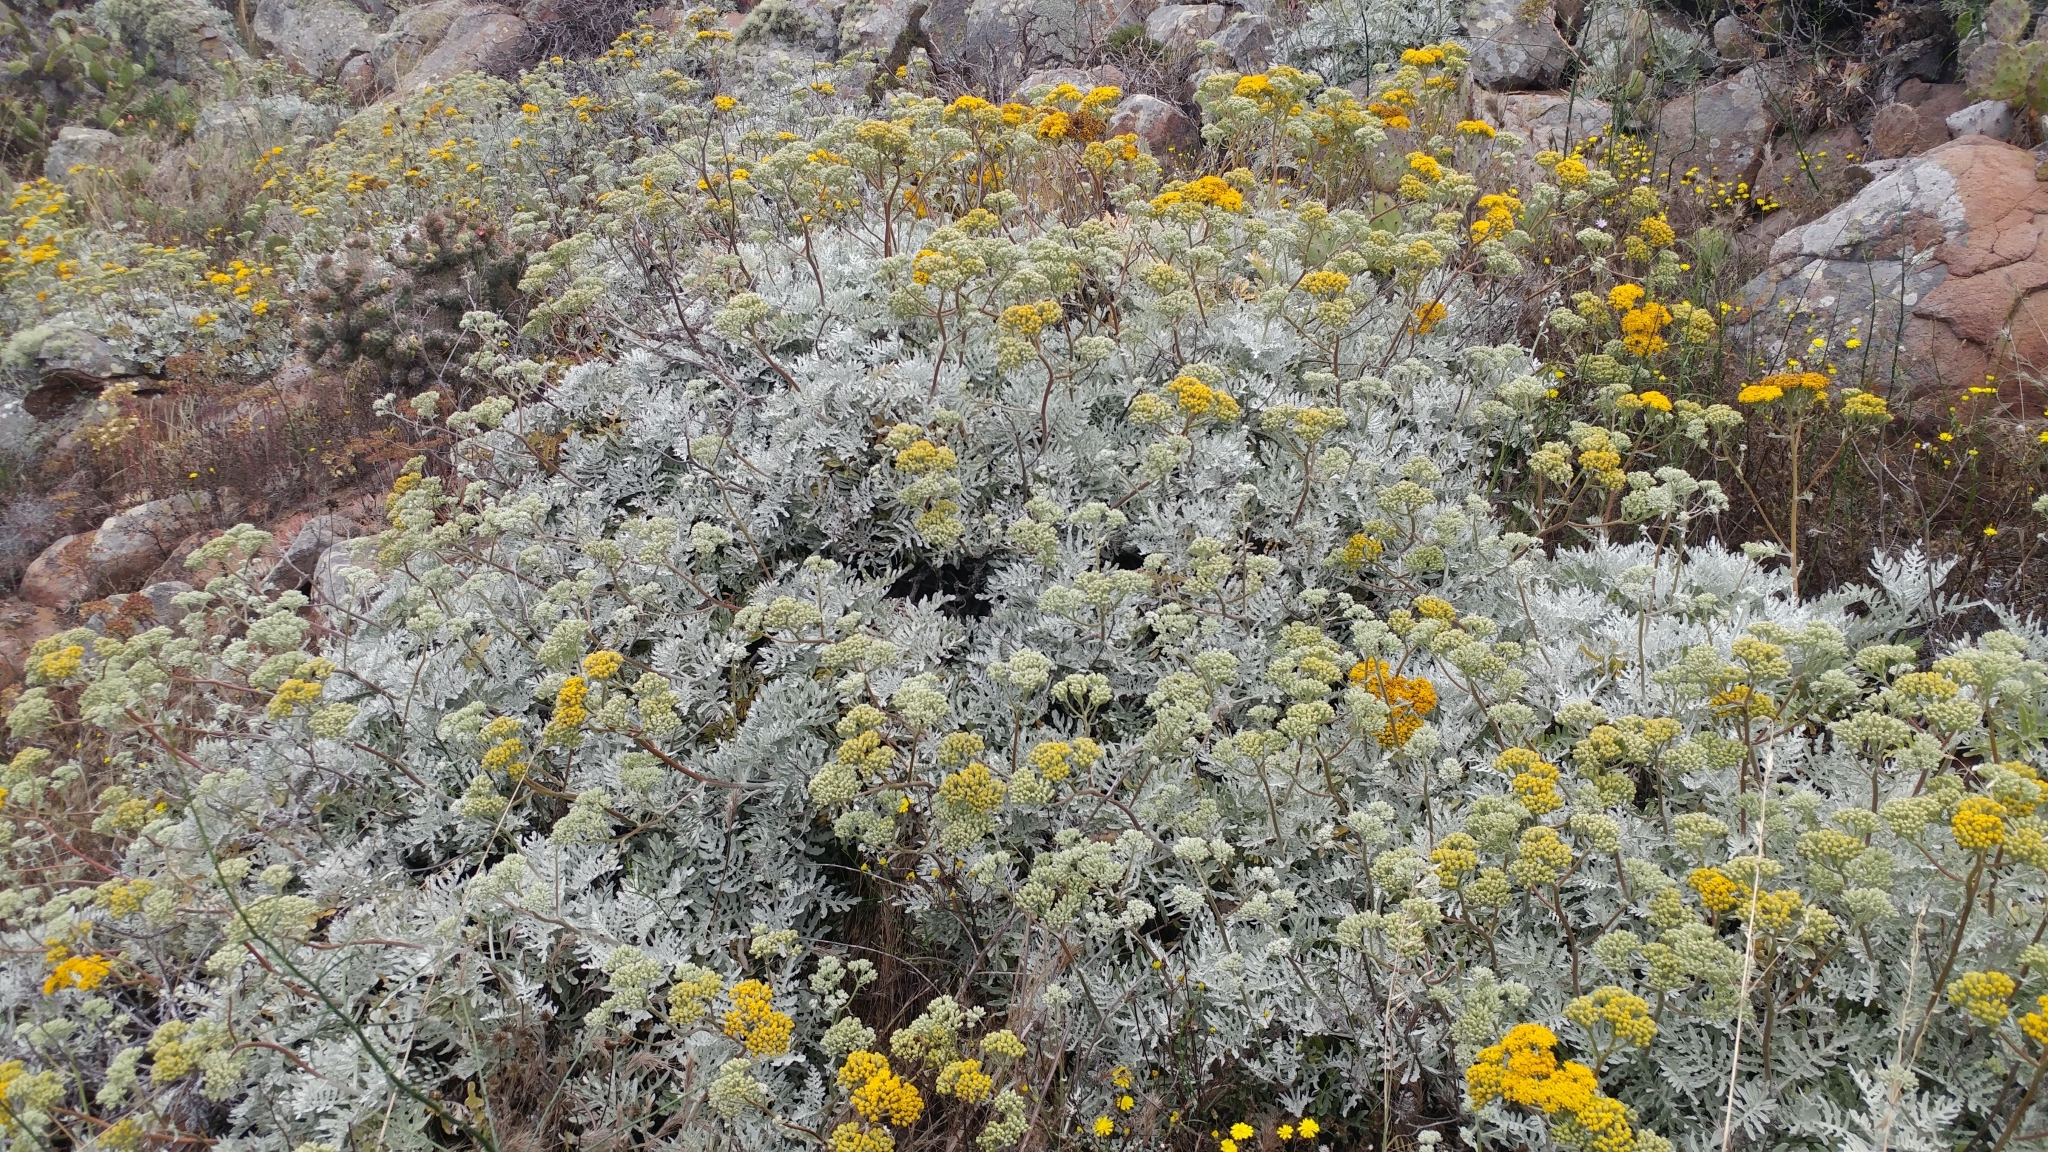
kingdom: Plantae
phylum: Tracheophyta
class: Magnoliopsida
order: Asterales
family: Asteraceae
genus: Constancea
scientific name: Constancea nevinii
